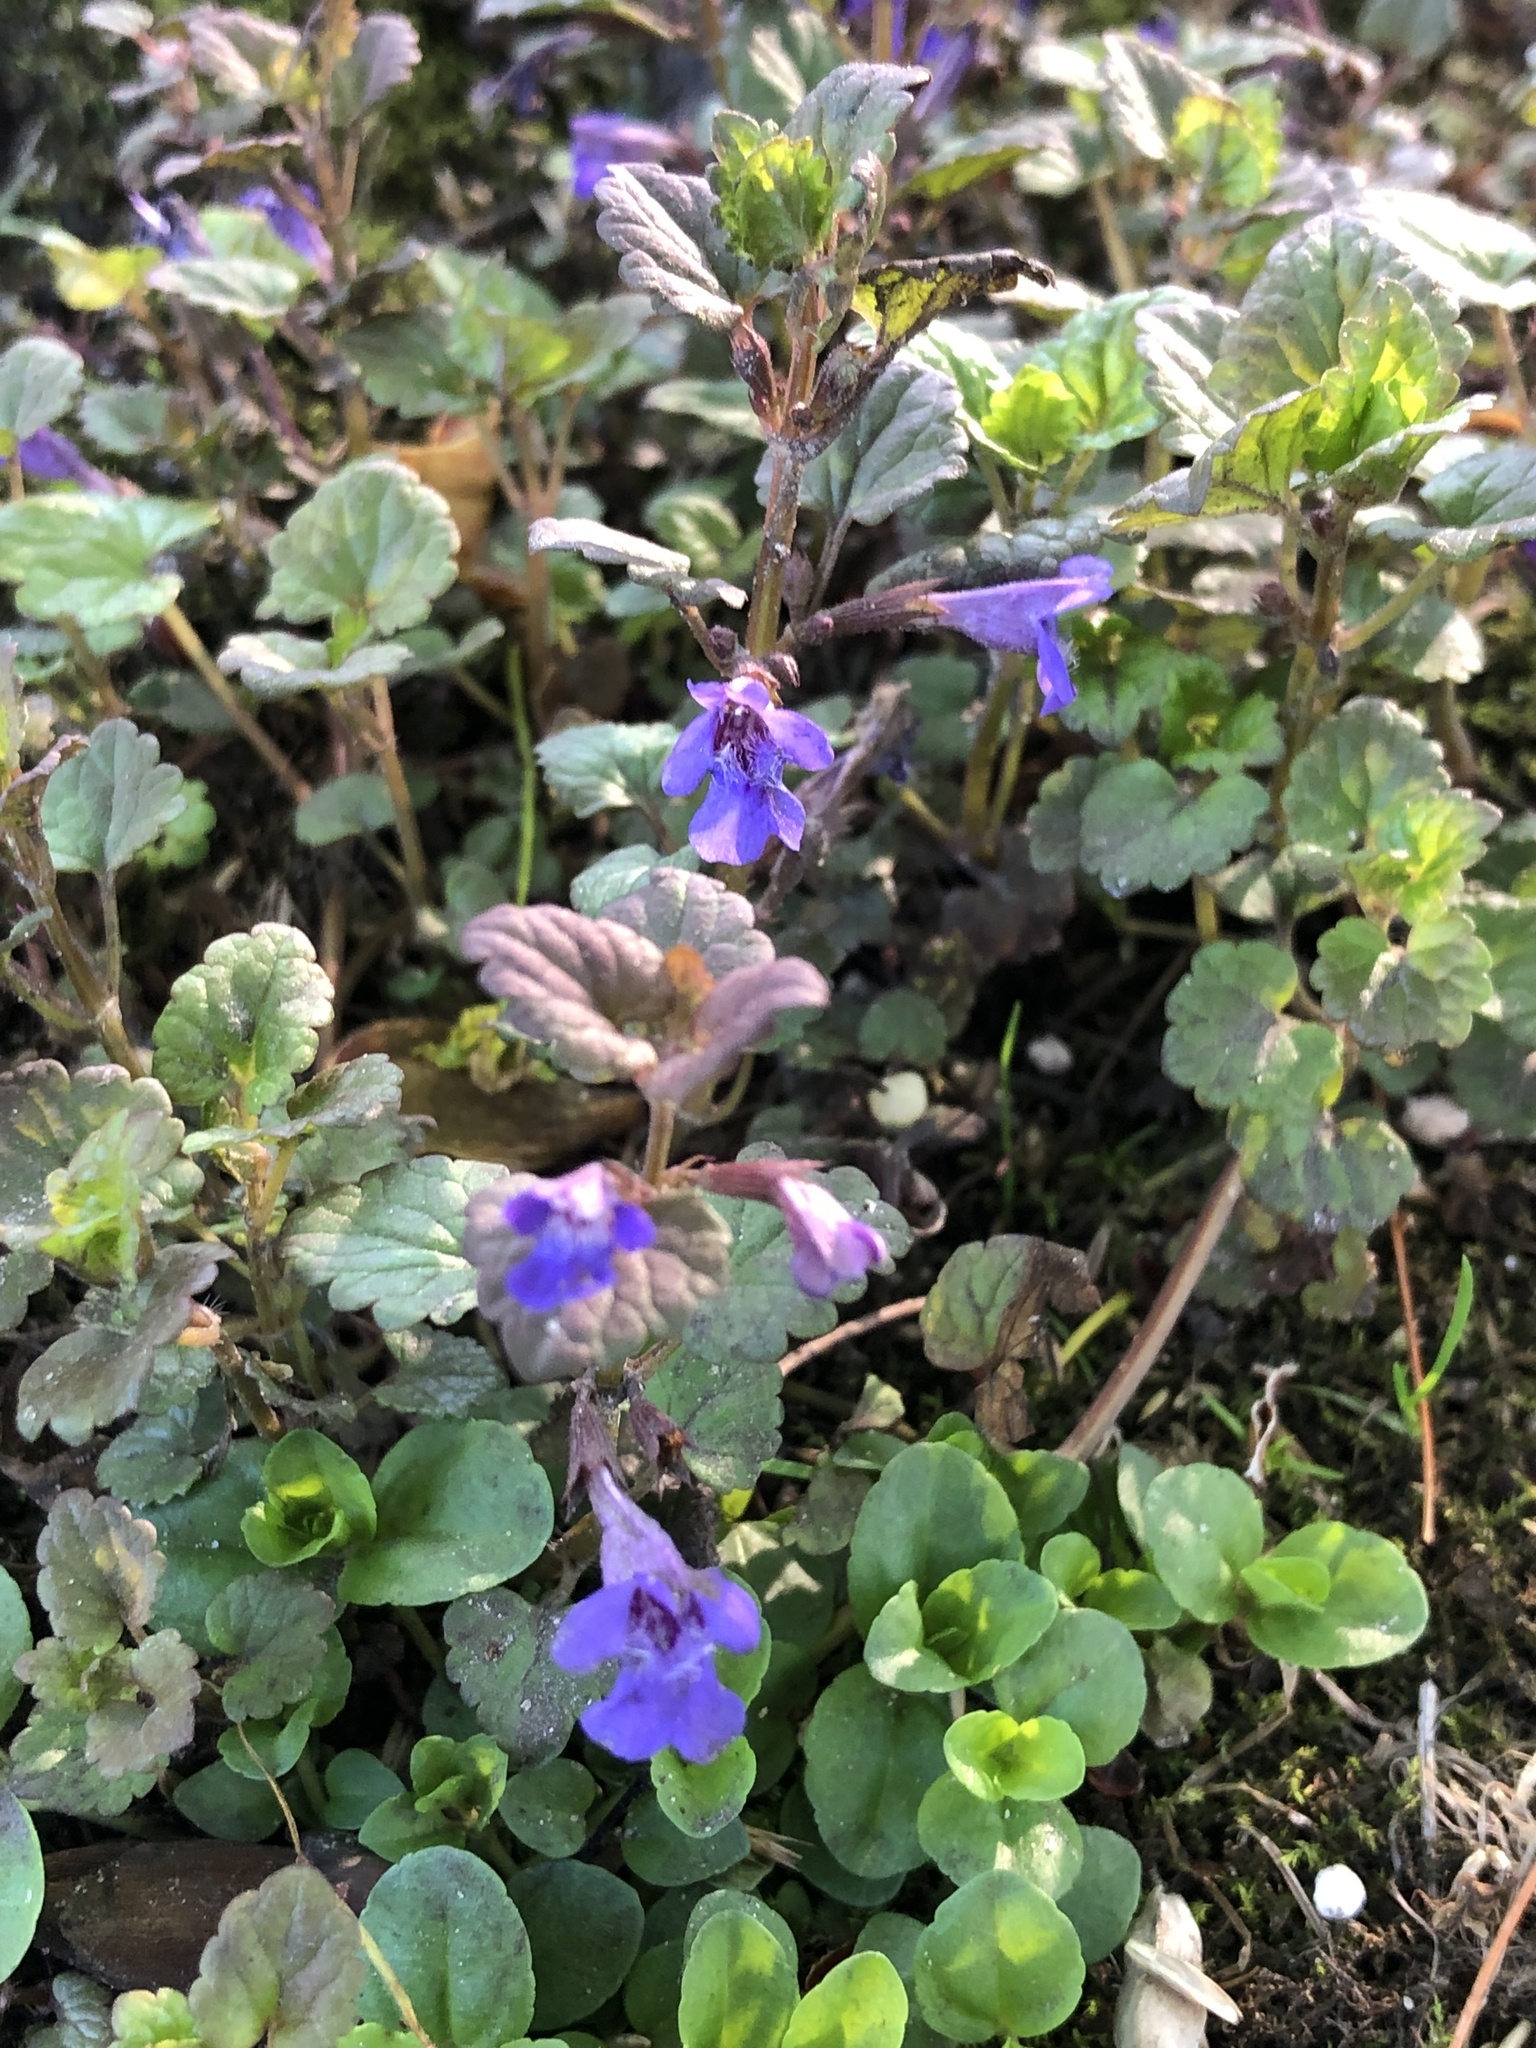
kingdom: Plantae
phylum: Tracheophyta
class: Magnoliopsida
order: Lamiales
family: Lamiaceae
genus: Glechoma
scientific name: Glechoma hederacea
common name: Ground ivy
